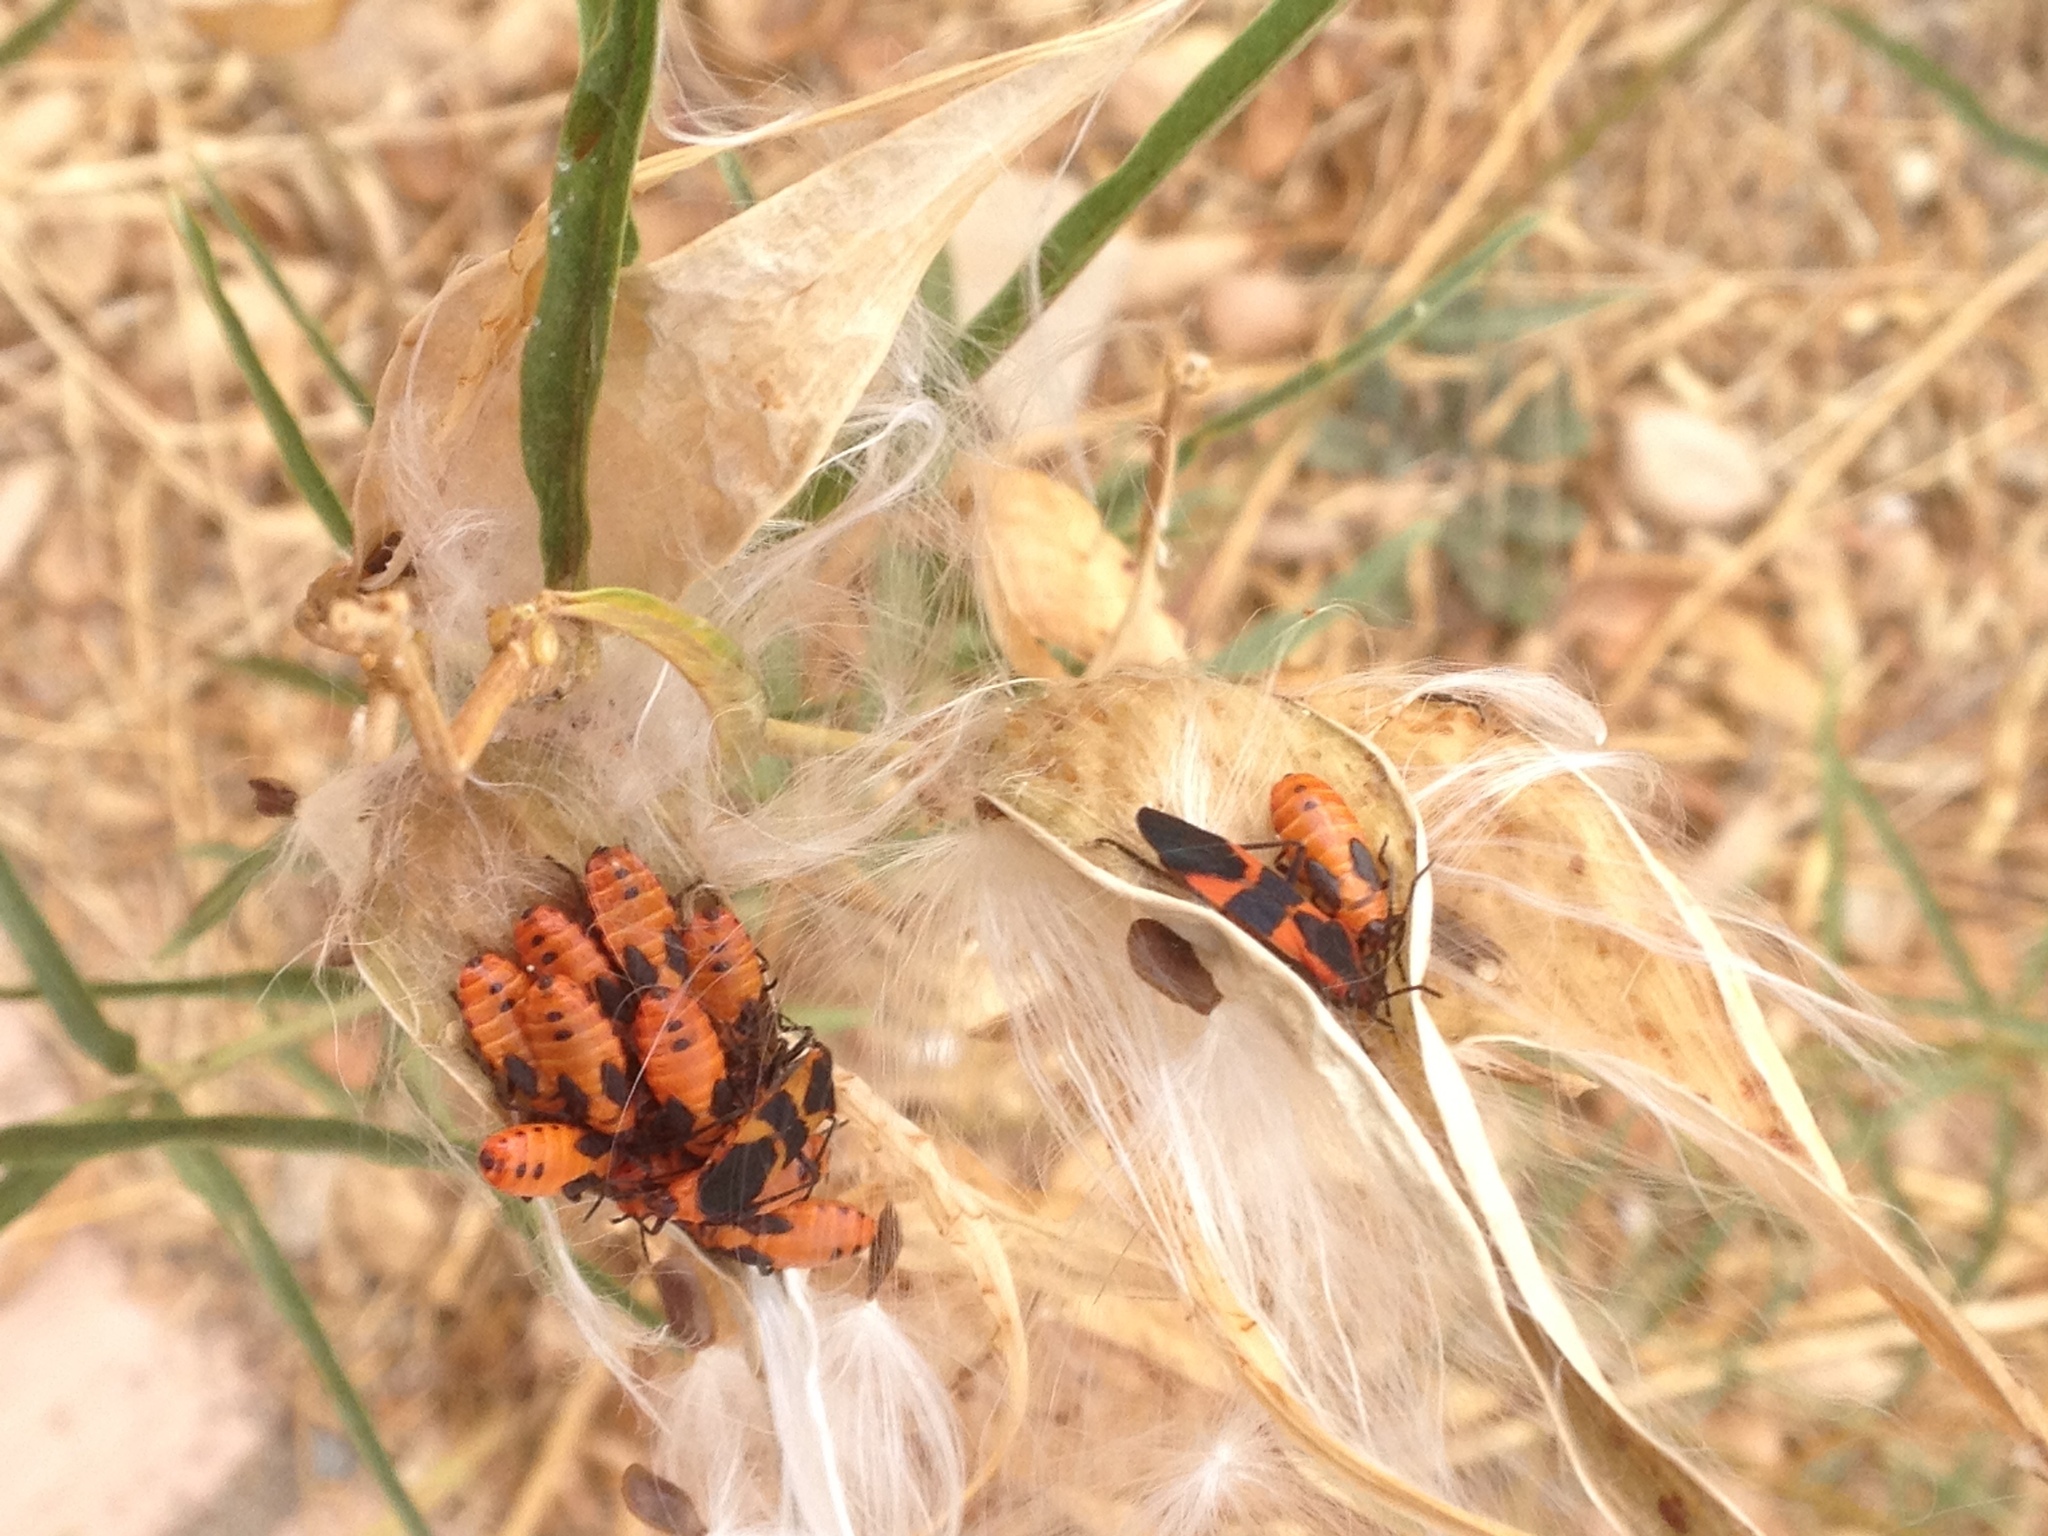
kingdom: Animalia
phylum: Arthropoda
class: Insecta
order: Hemiptera
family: Lygaeidae
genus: Oncopeltus
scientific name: Oncopeltus fasciatus
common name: Large milkweed bug
